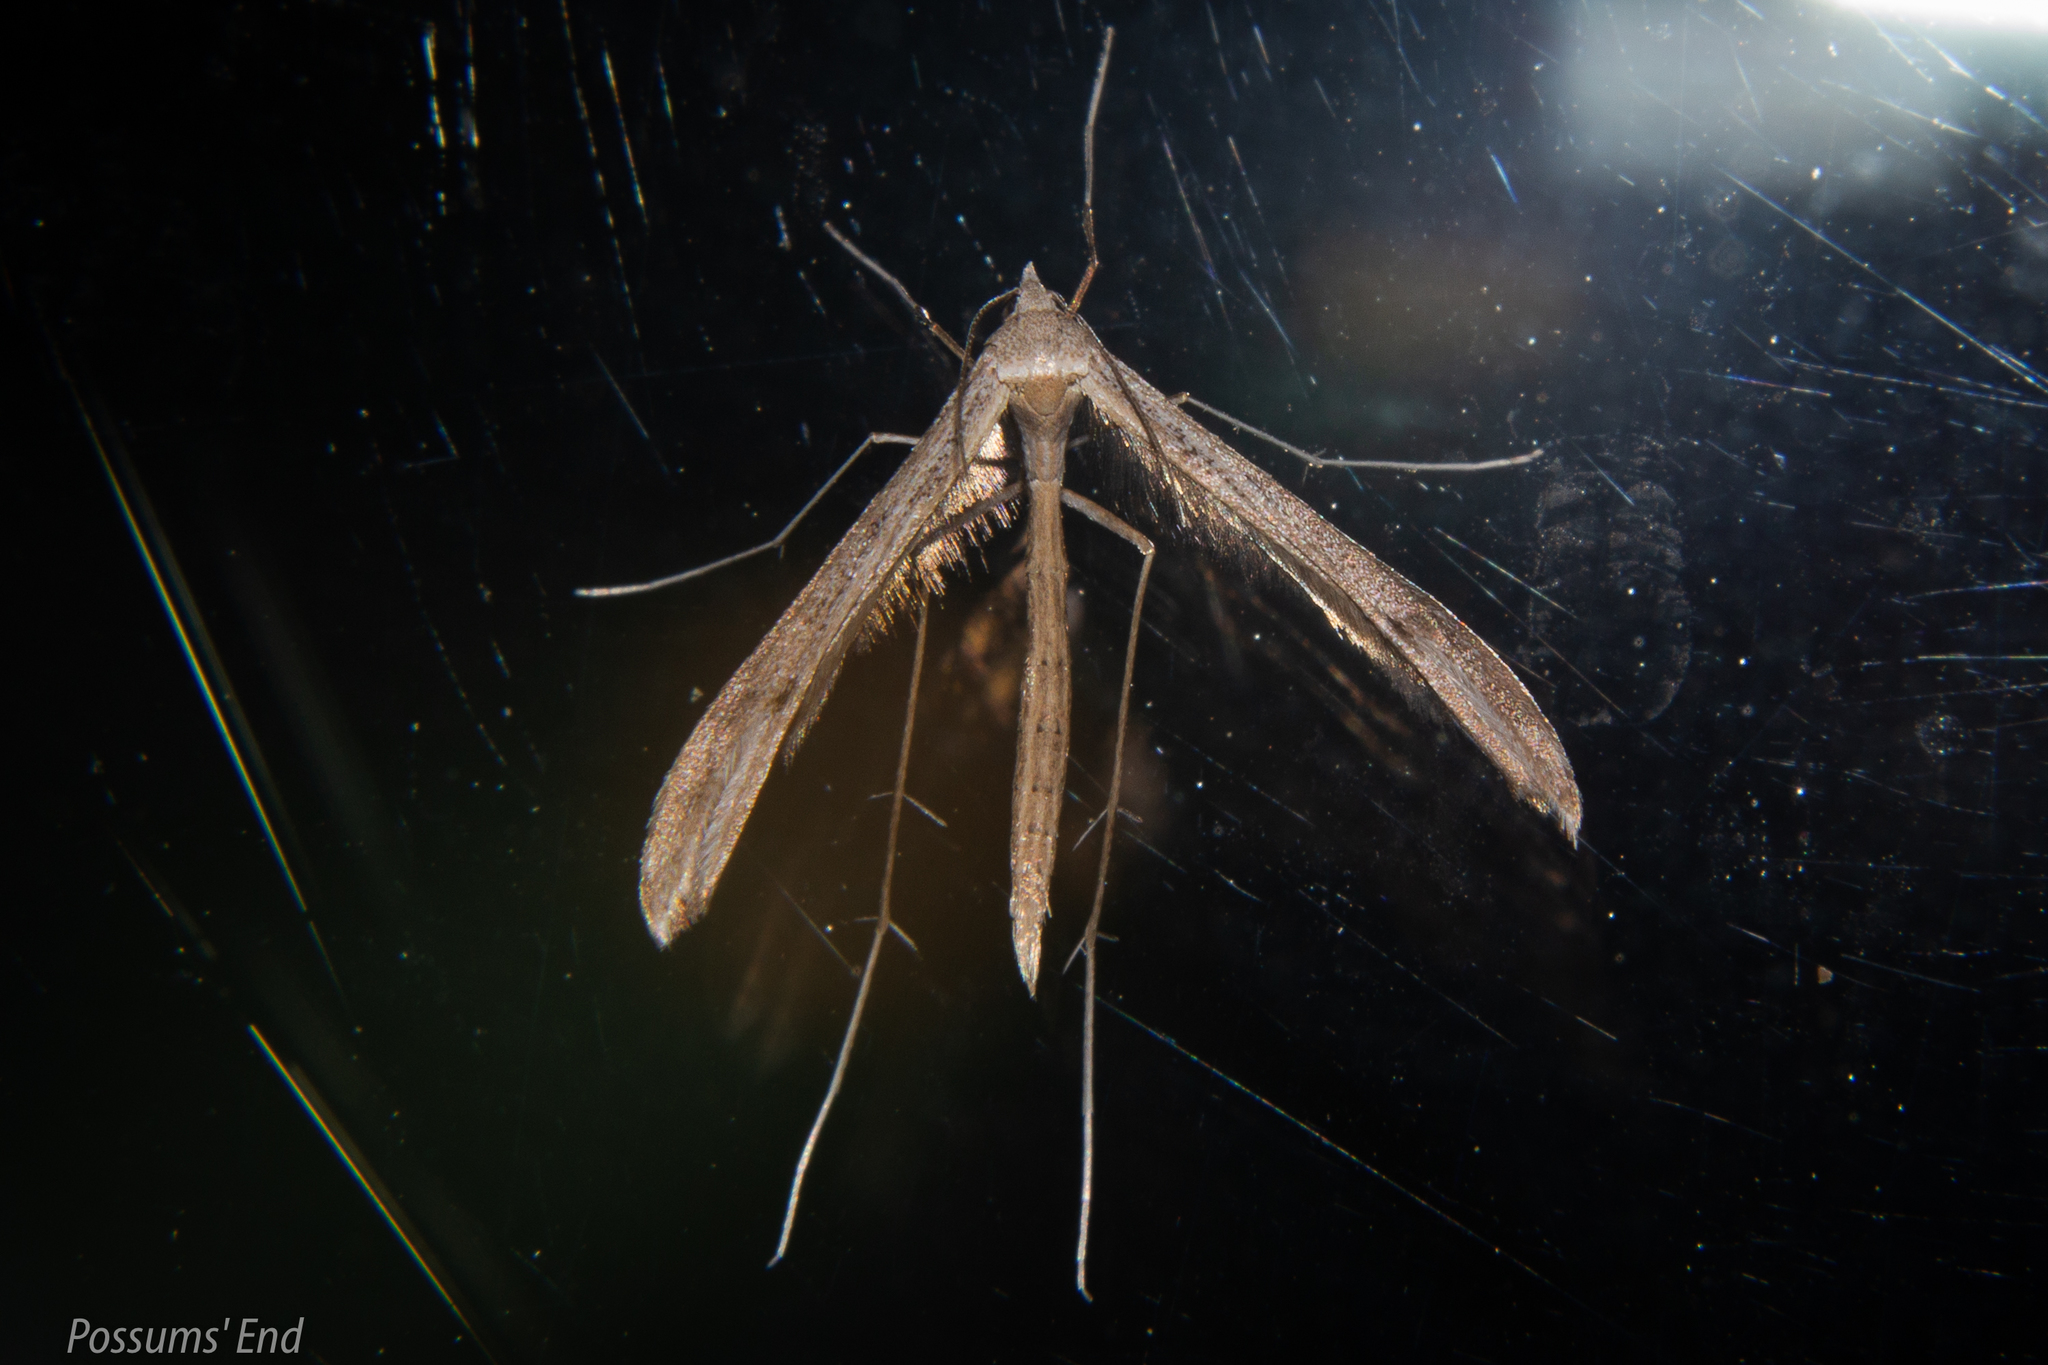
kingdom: Animalia
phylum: Arthropoda
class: Insecta
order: Lepidoptera
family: Pterophoridae
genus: Stenoptilia
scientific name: Stenoptilia zophodactylus
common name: Dowdy plume
